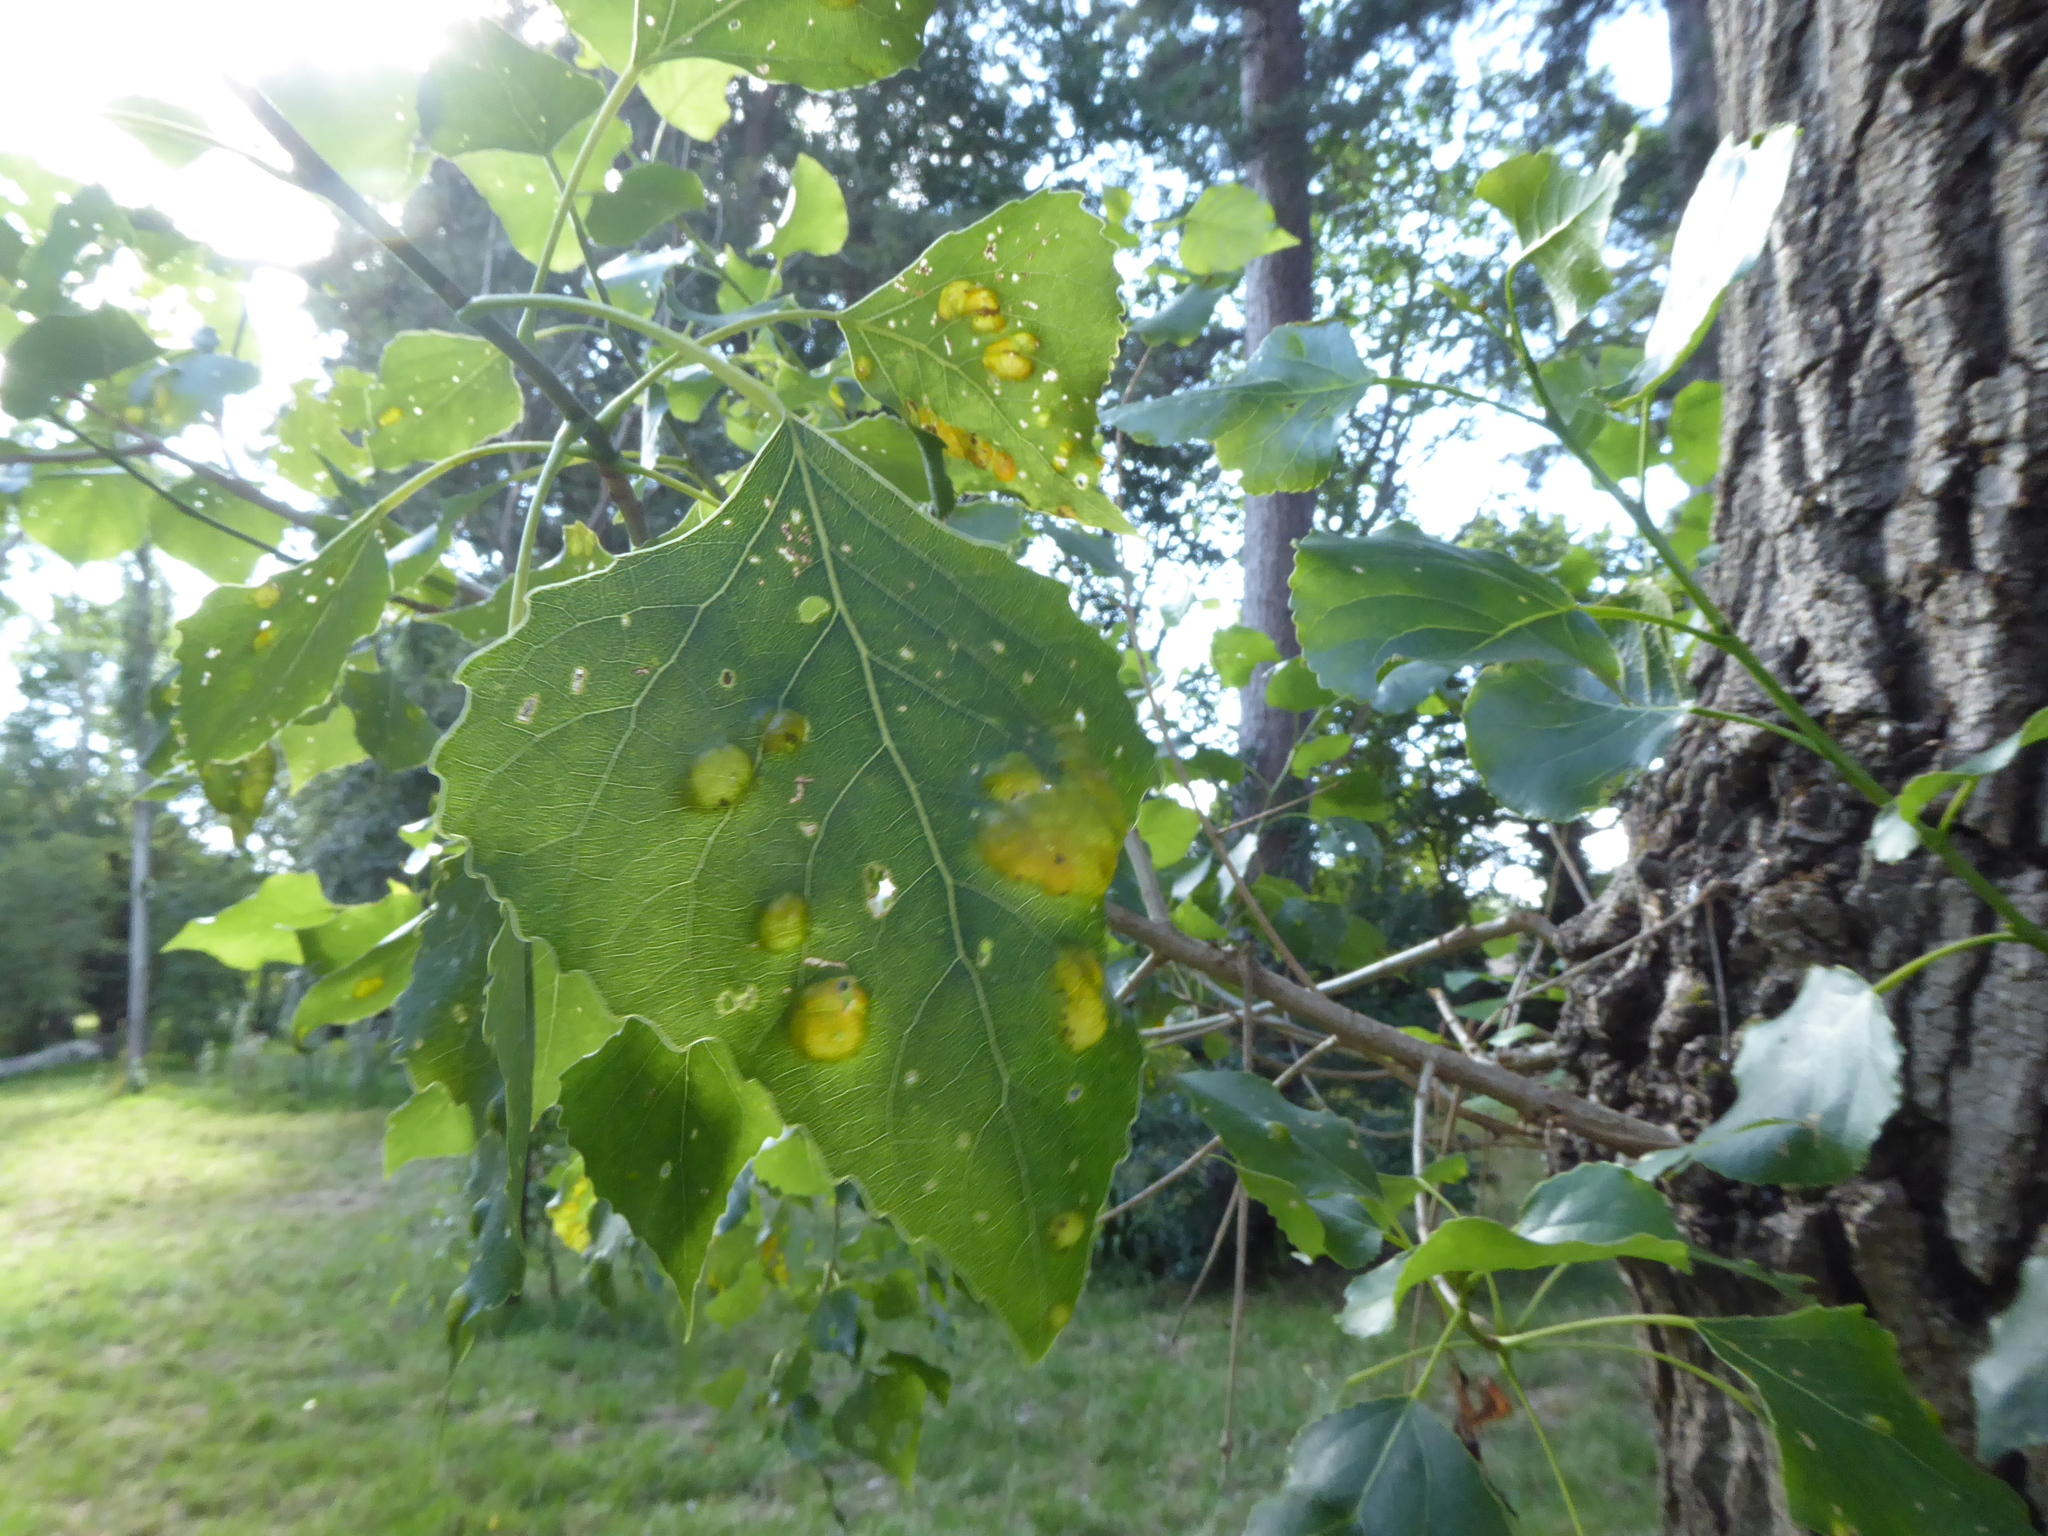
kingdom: Fungi
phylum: Ascomycota
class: Taphrinomycetes
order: Taphrinales
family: Taphrinaceae
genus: Taphrina
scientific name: Taphrina populina
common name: Poplar leaf curl
